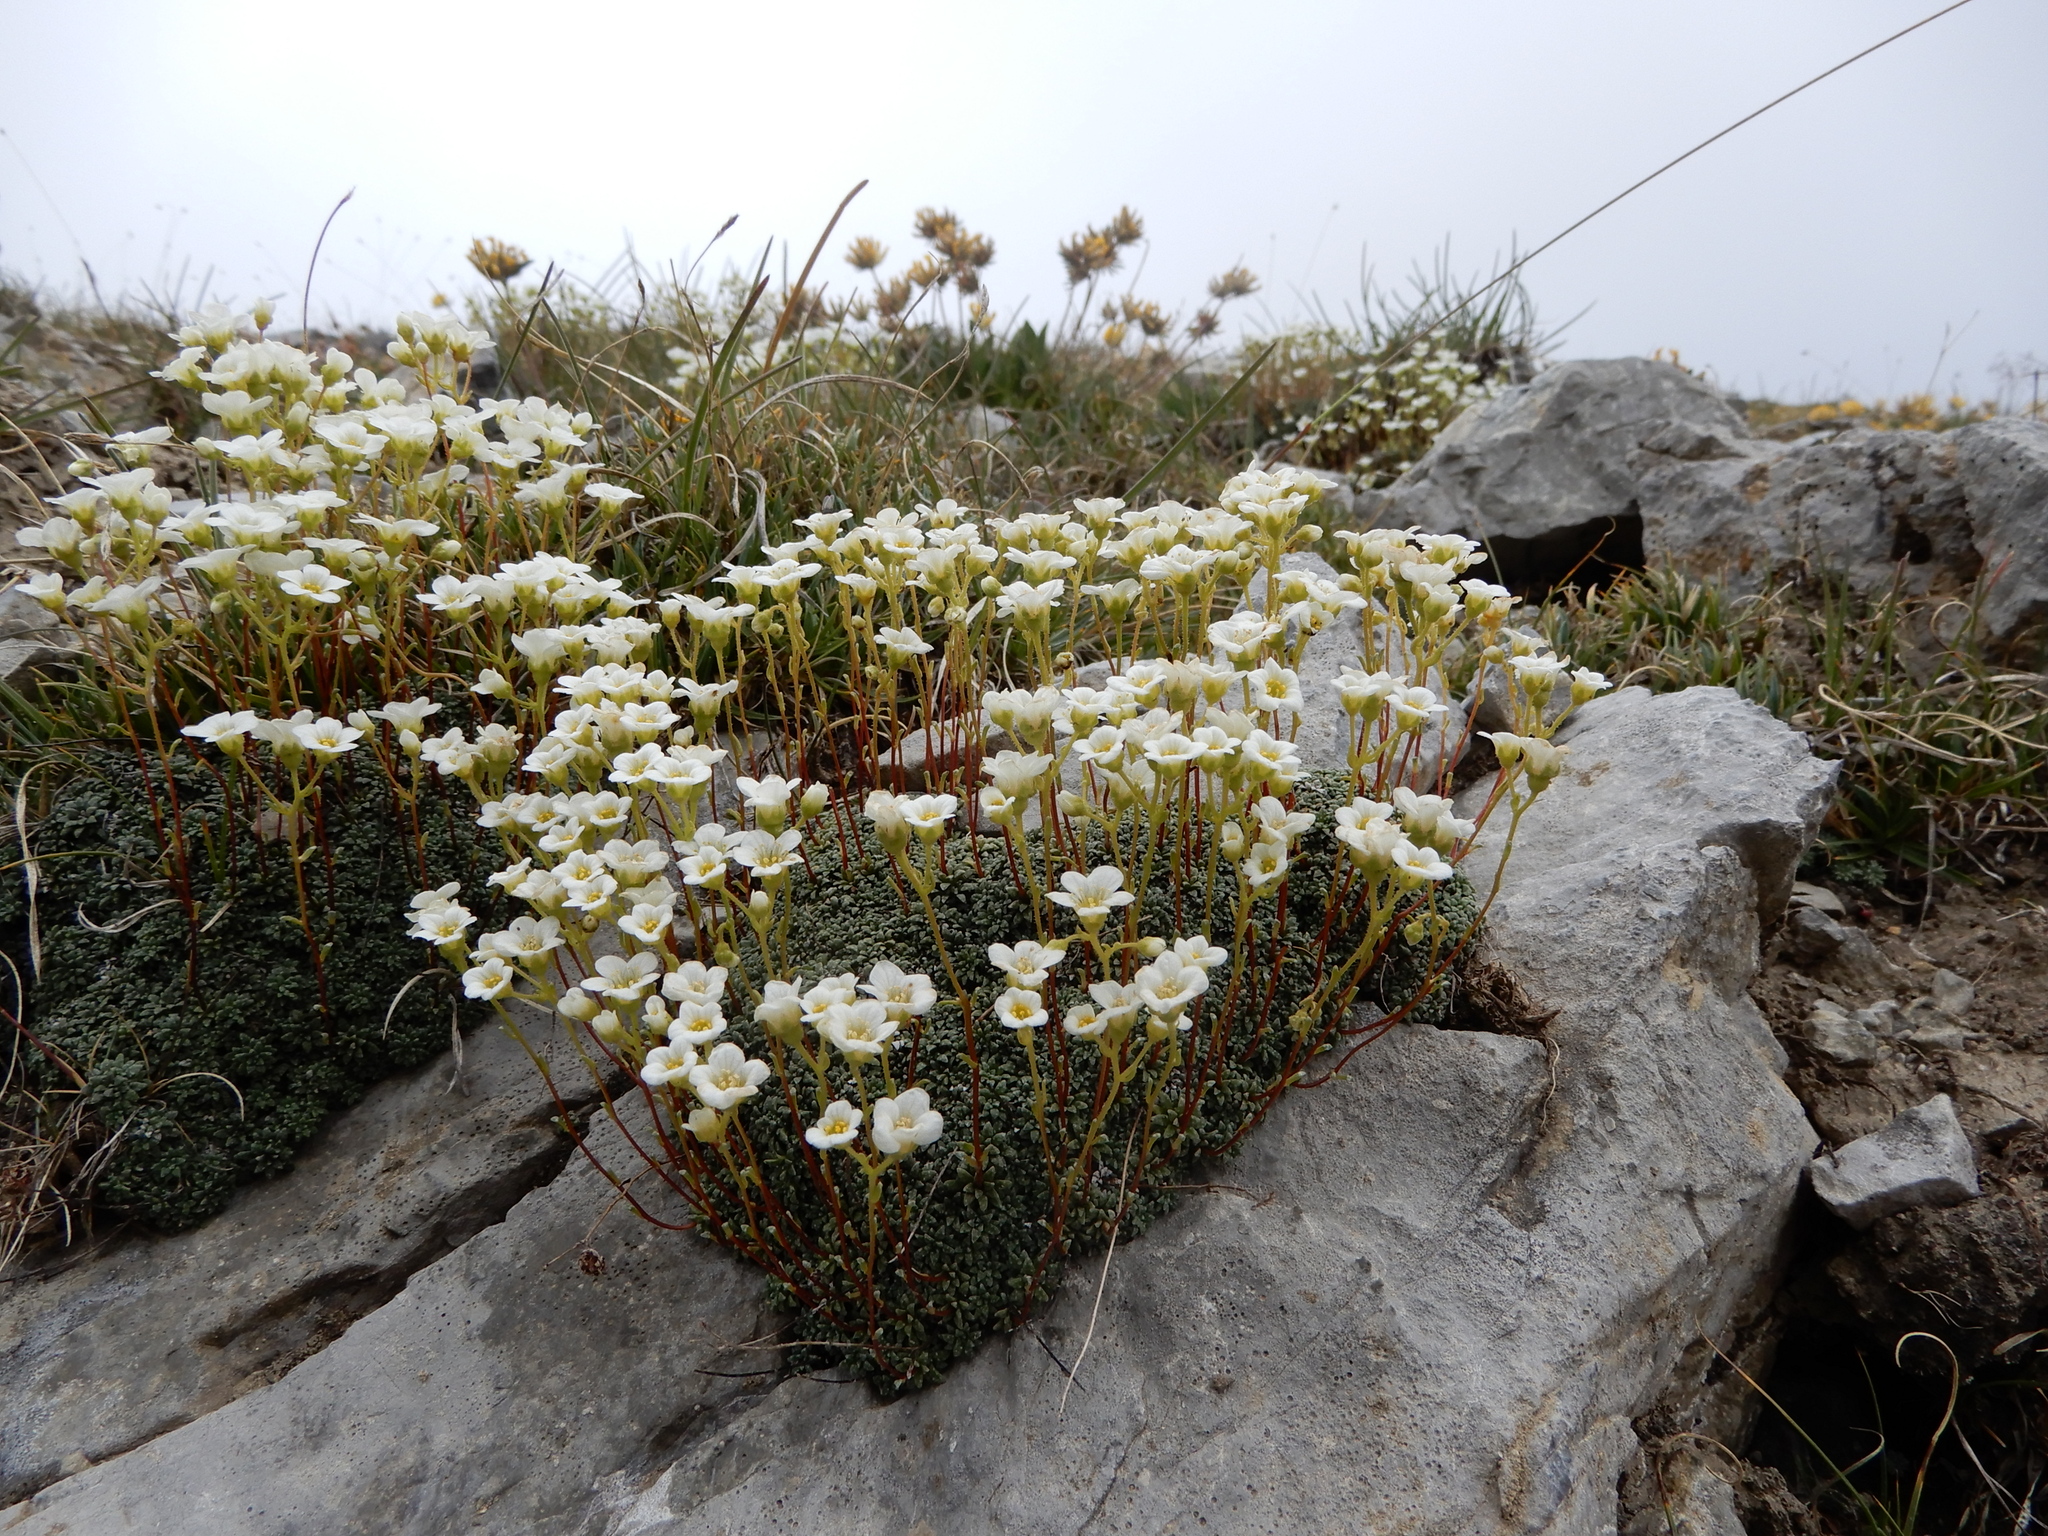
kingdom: Plantae
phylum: Tracheophyta
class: Magnoliopsida
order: Saxifragales
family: Saxifragaceae
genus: Saxifraga
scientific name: Saxifraga caesia
